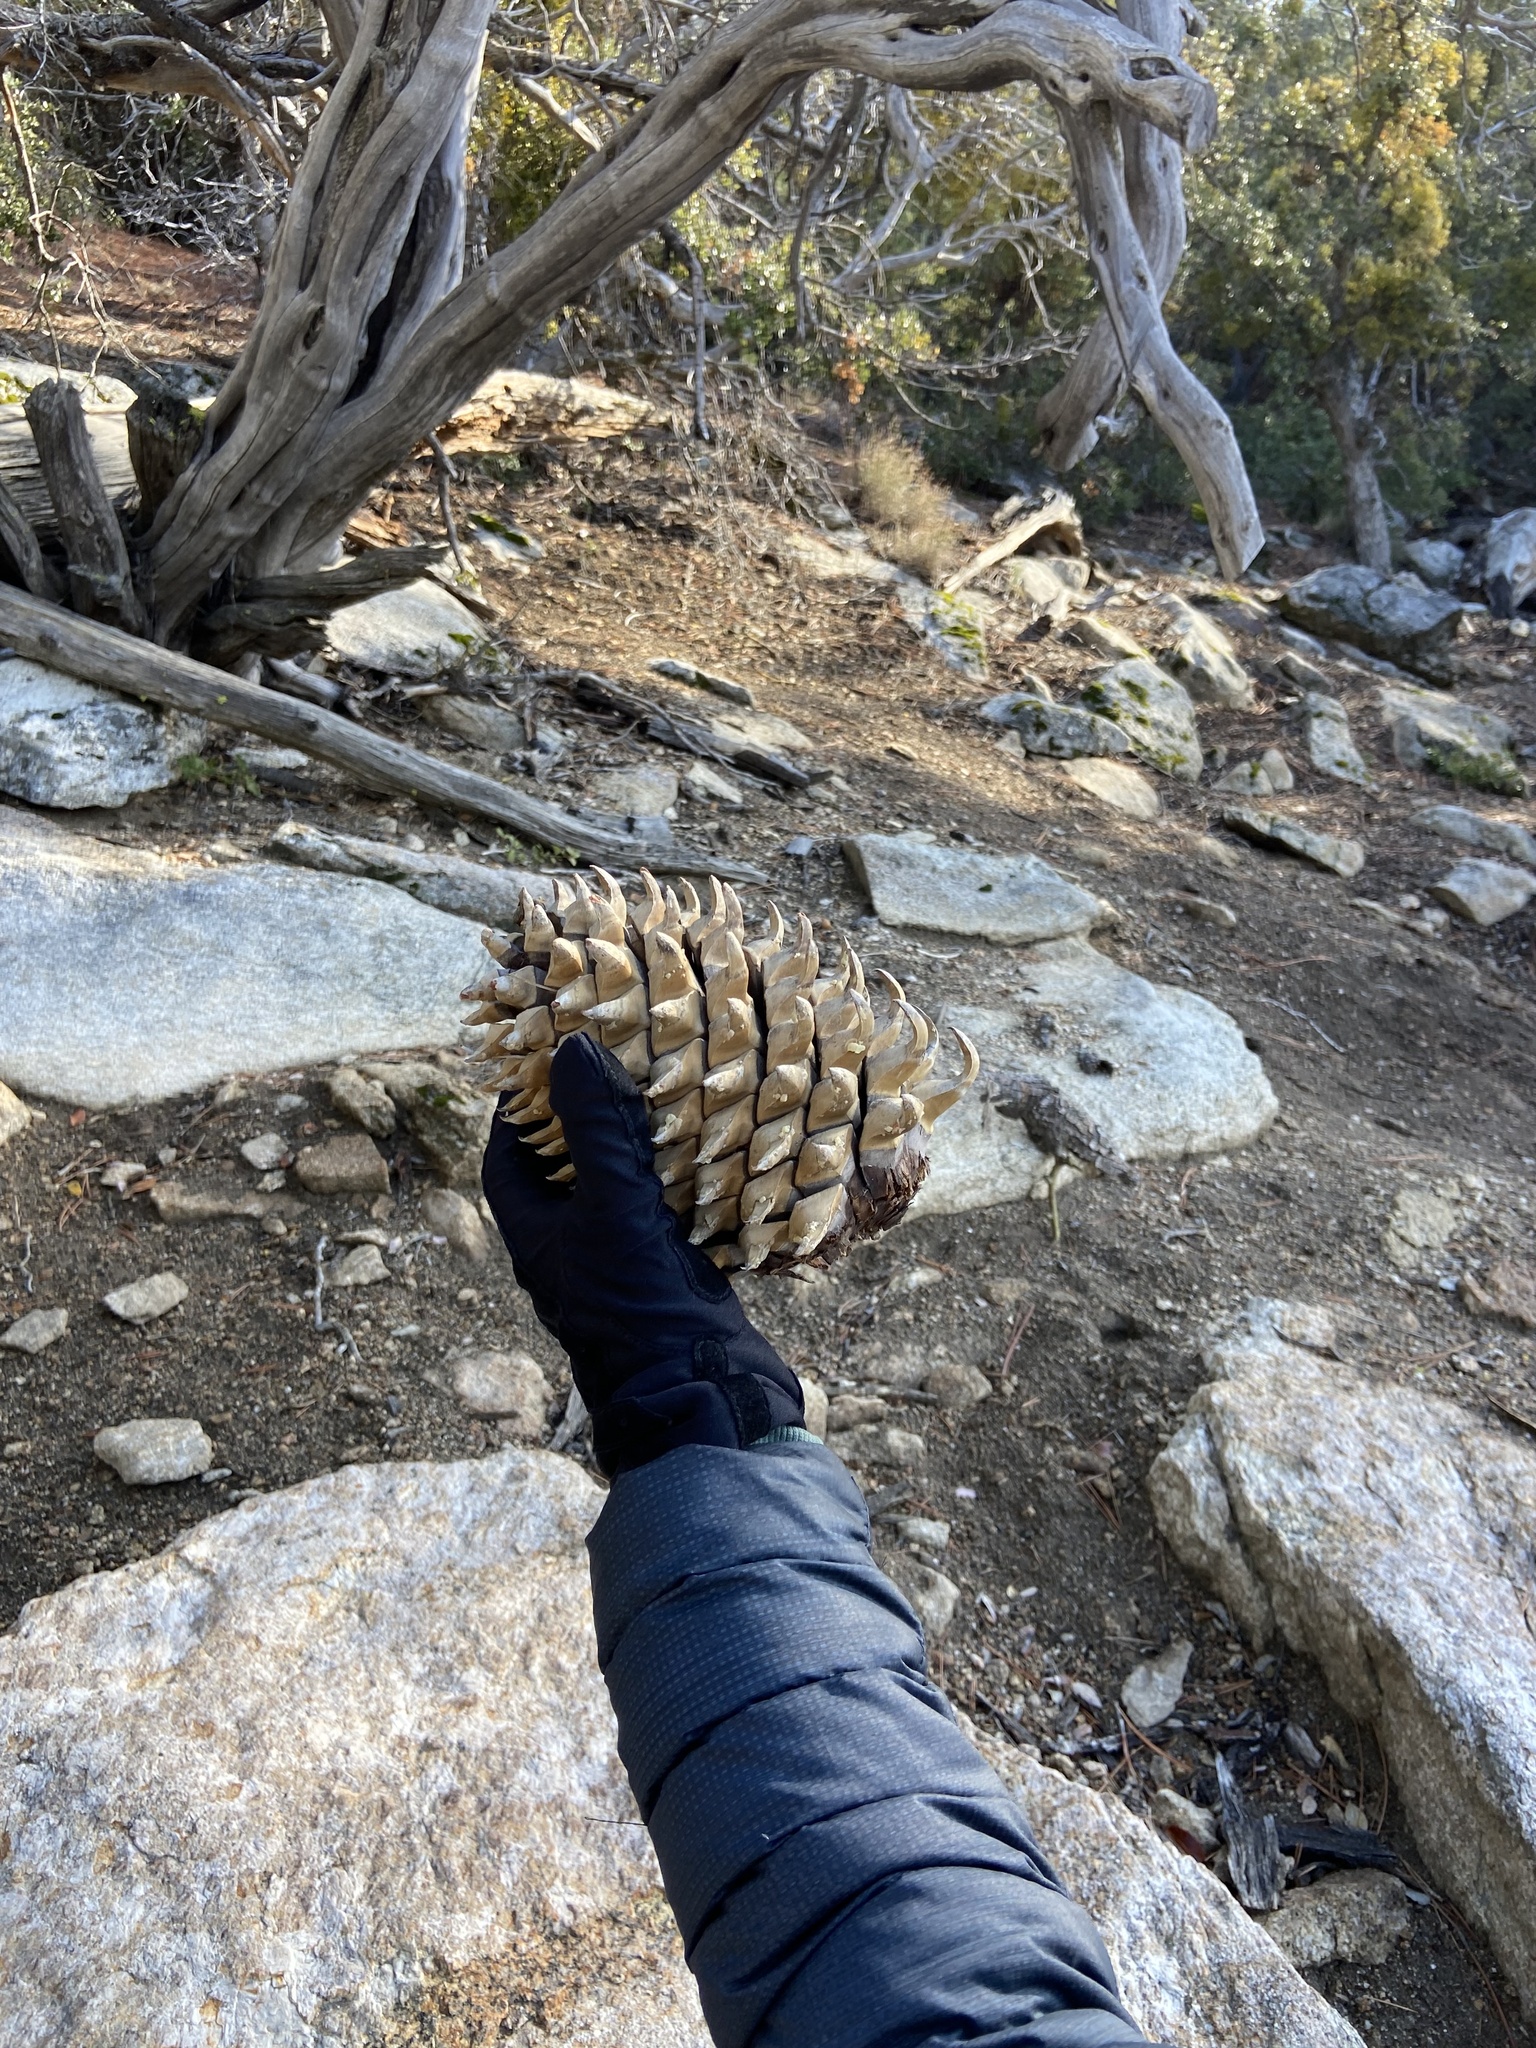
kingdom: Plantae
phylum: Tracheophyta
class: Pinopsida
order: Pinales
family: Pinaceae
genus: Pinus
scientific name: Pinus coulteri
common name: Coulter pine
